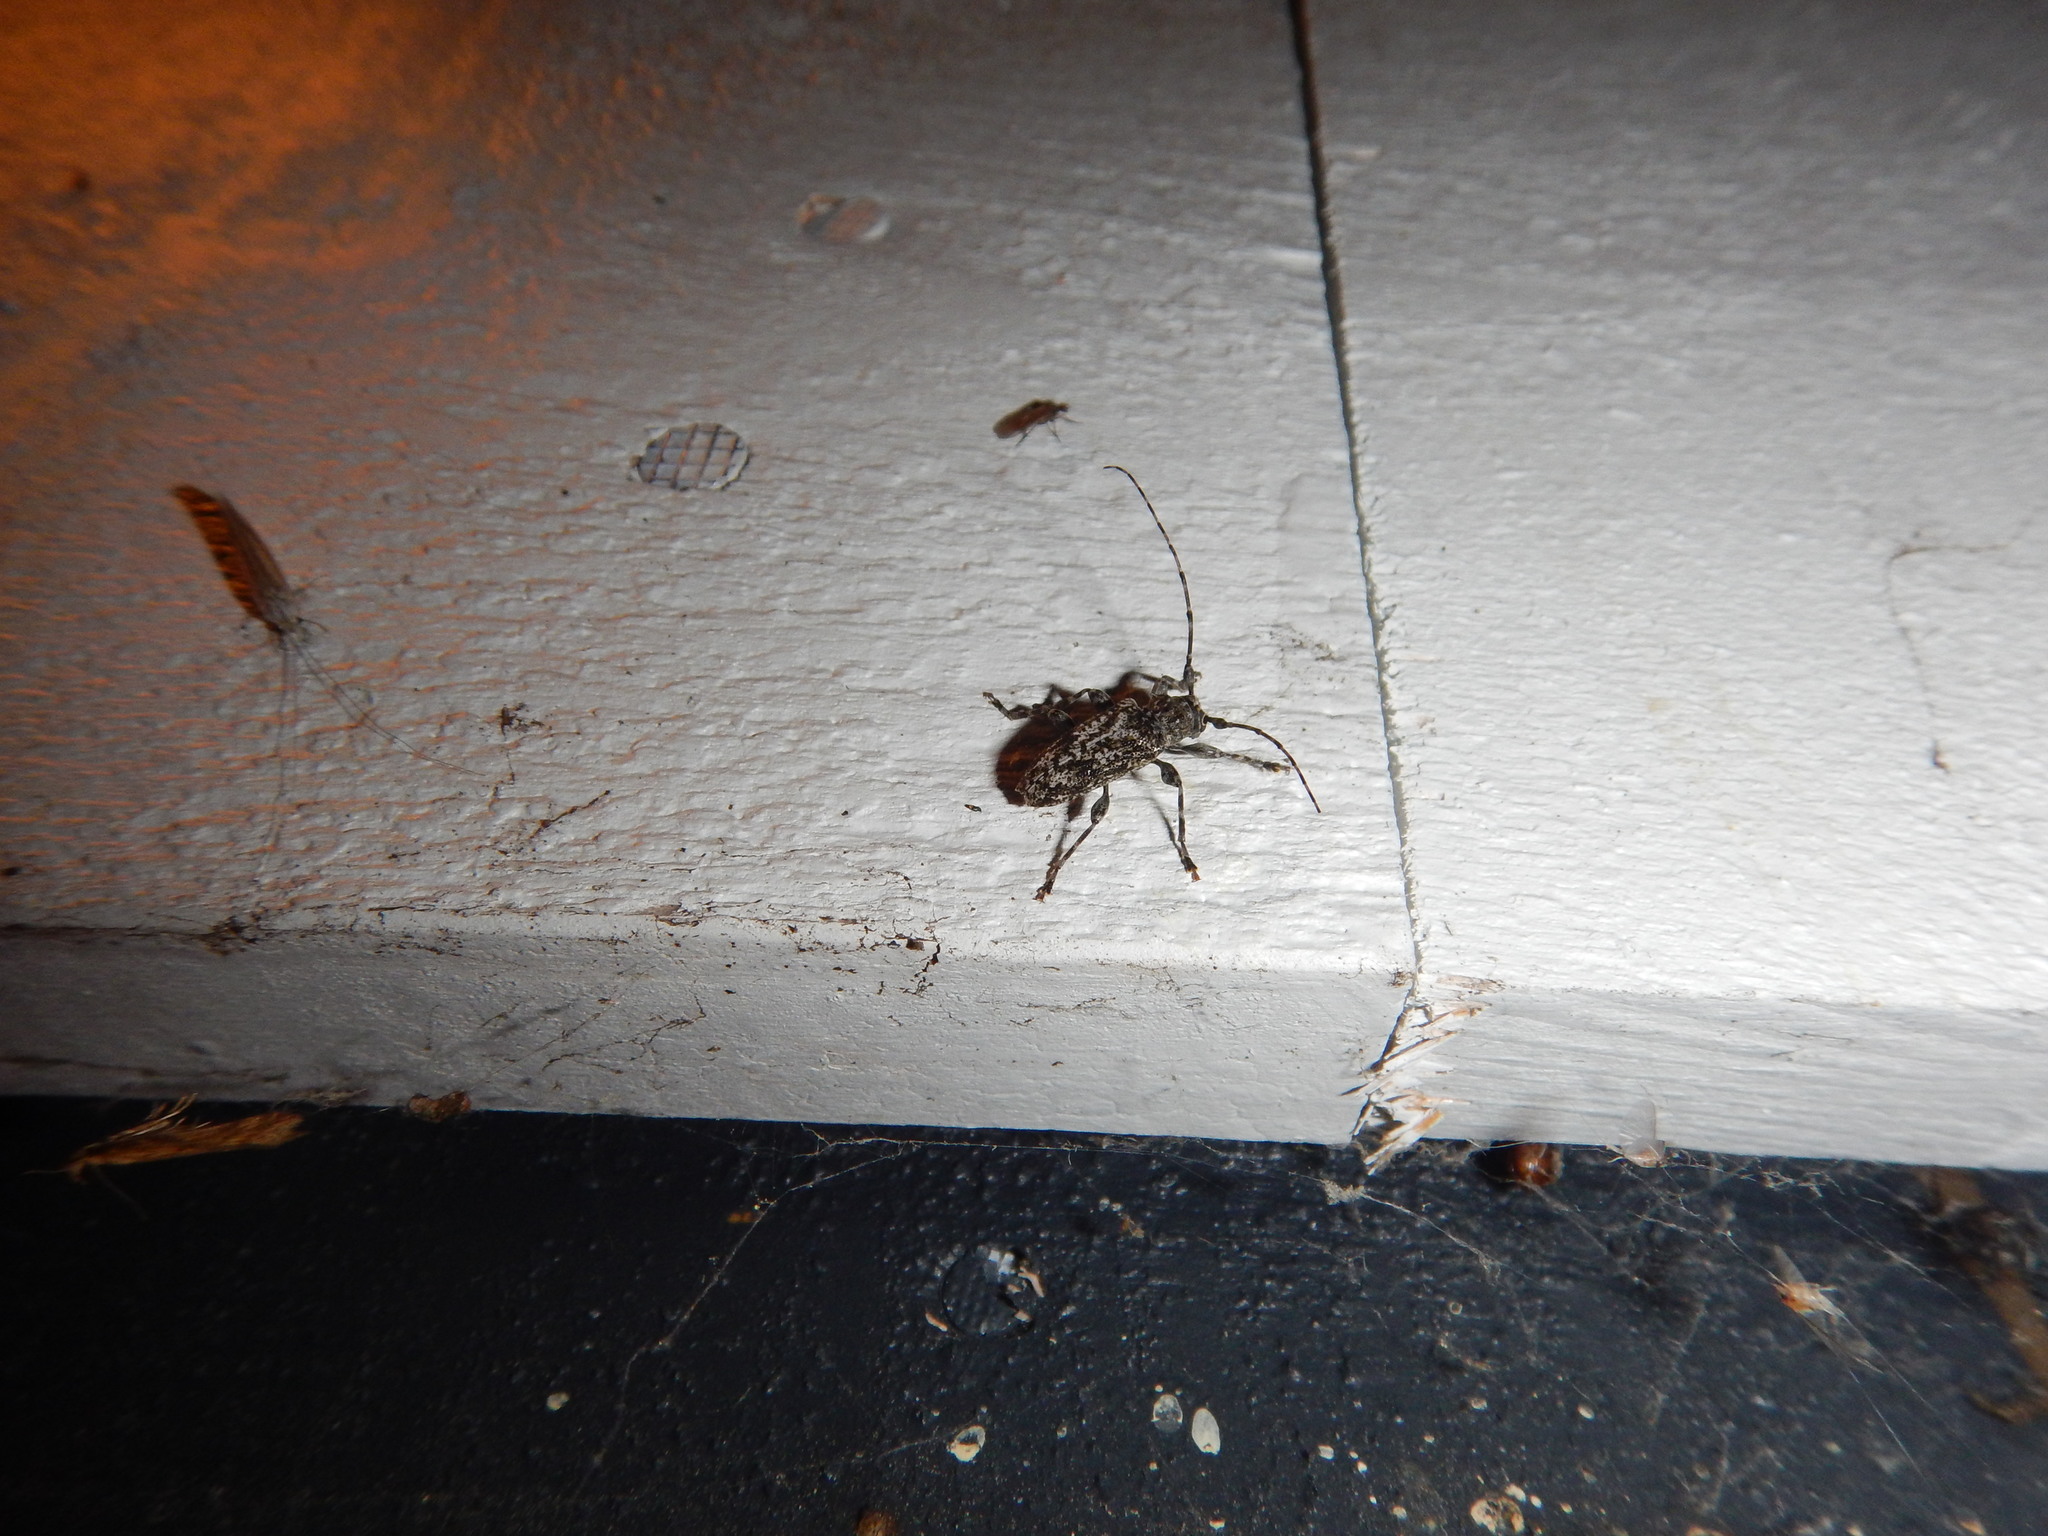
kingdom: Animalia
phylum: Arthropoda
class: Insecta
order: Coleoptera
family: Cerambycidae
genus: Aegomorphus
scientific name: Aegomorphus modestus
